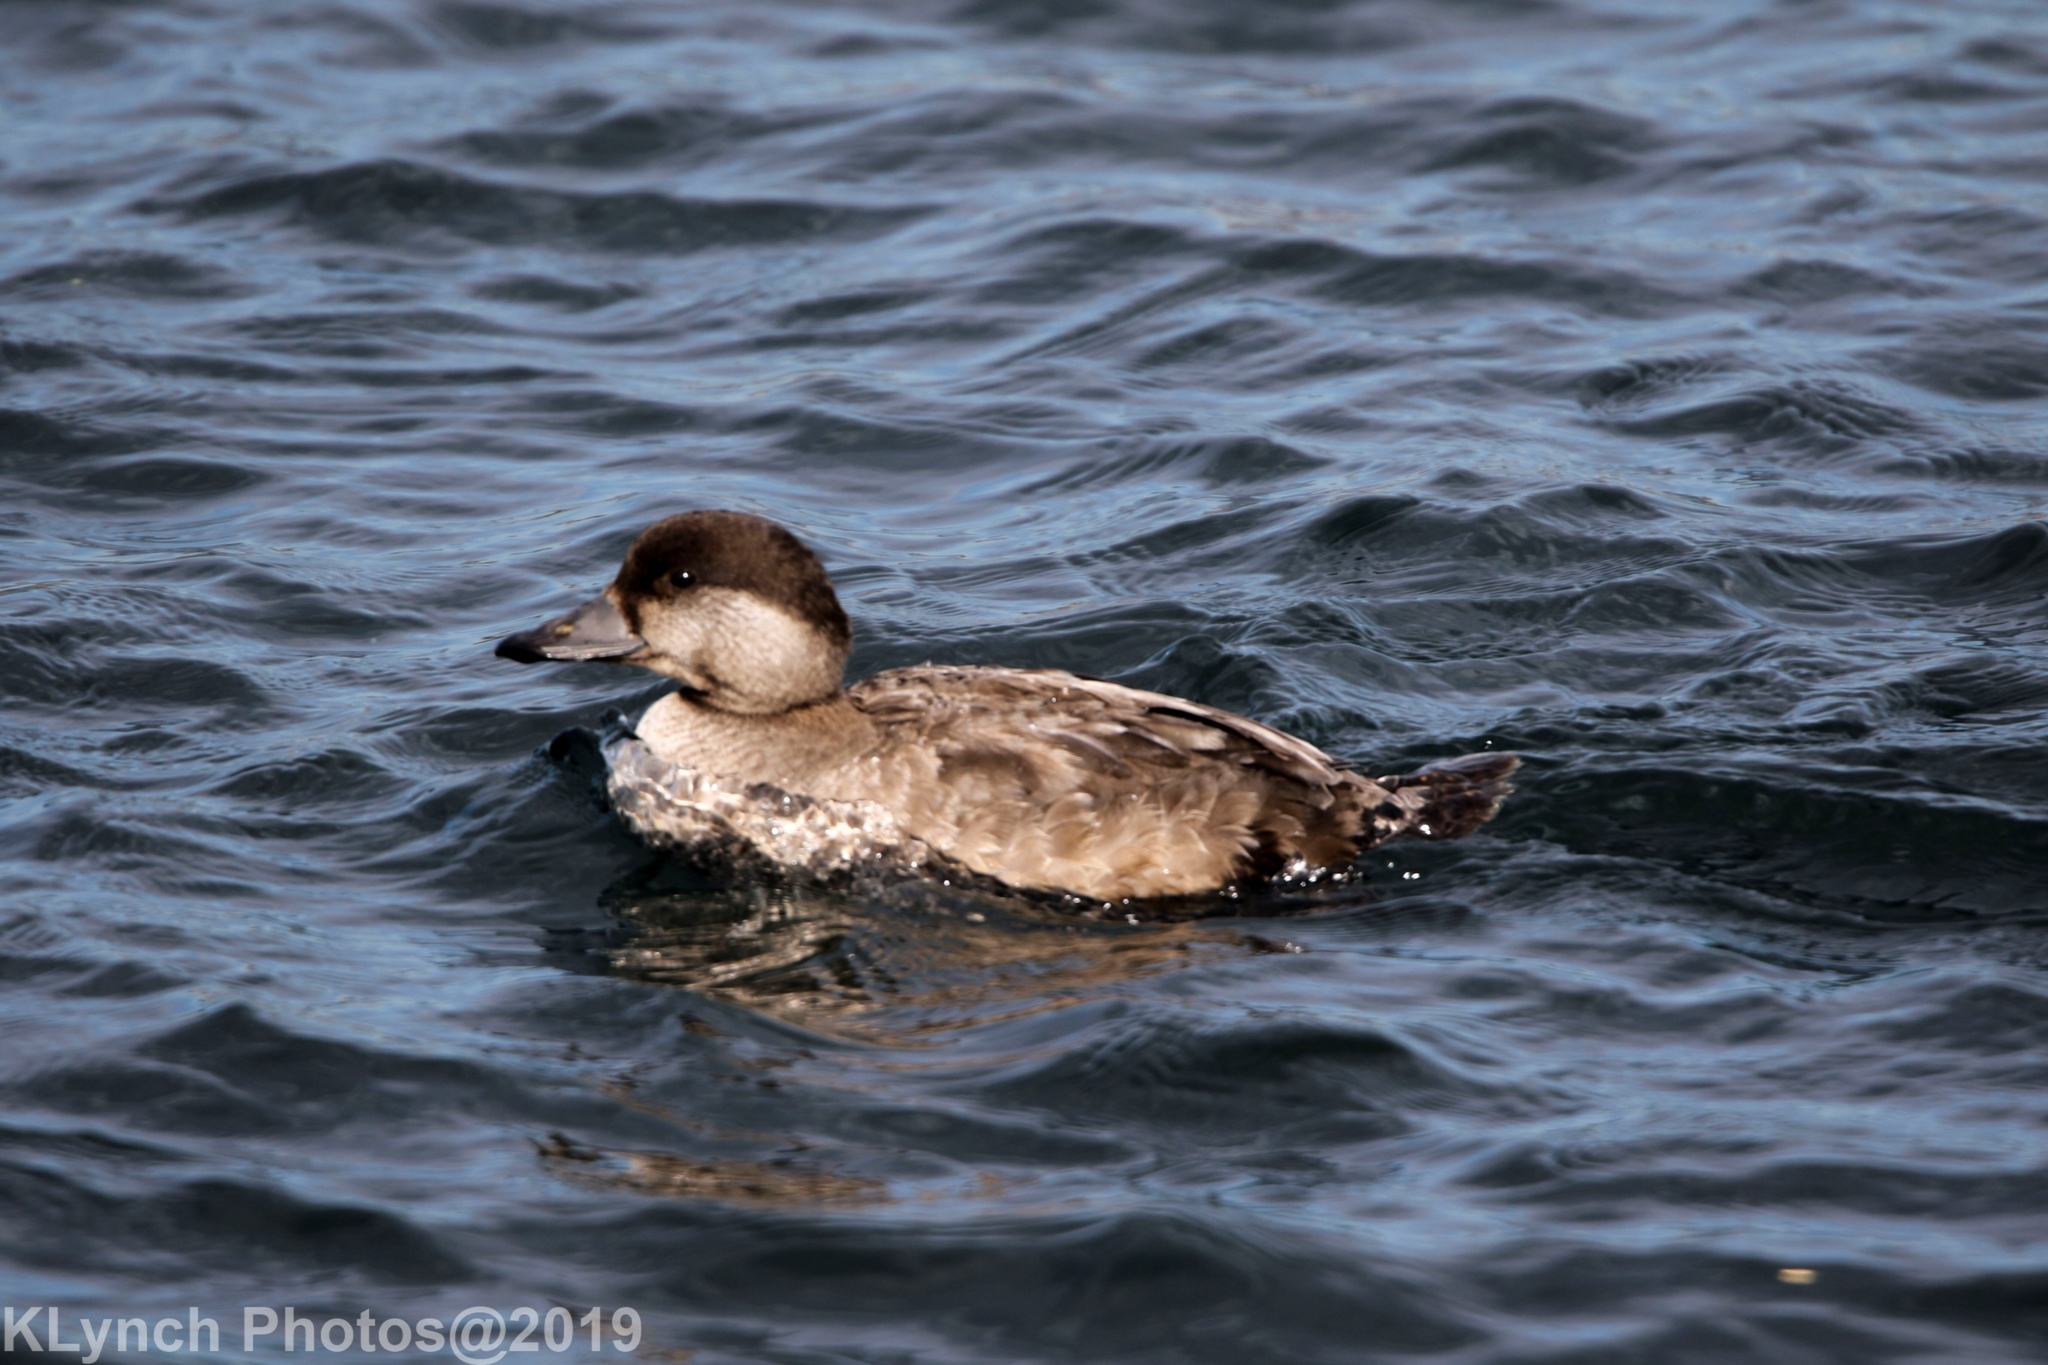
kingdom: Animalia
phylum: Chordata
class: Aves
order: Anseriformes
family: Anatidae
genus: Melanitta
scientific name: Melanitta americana
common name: Black scoter
